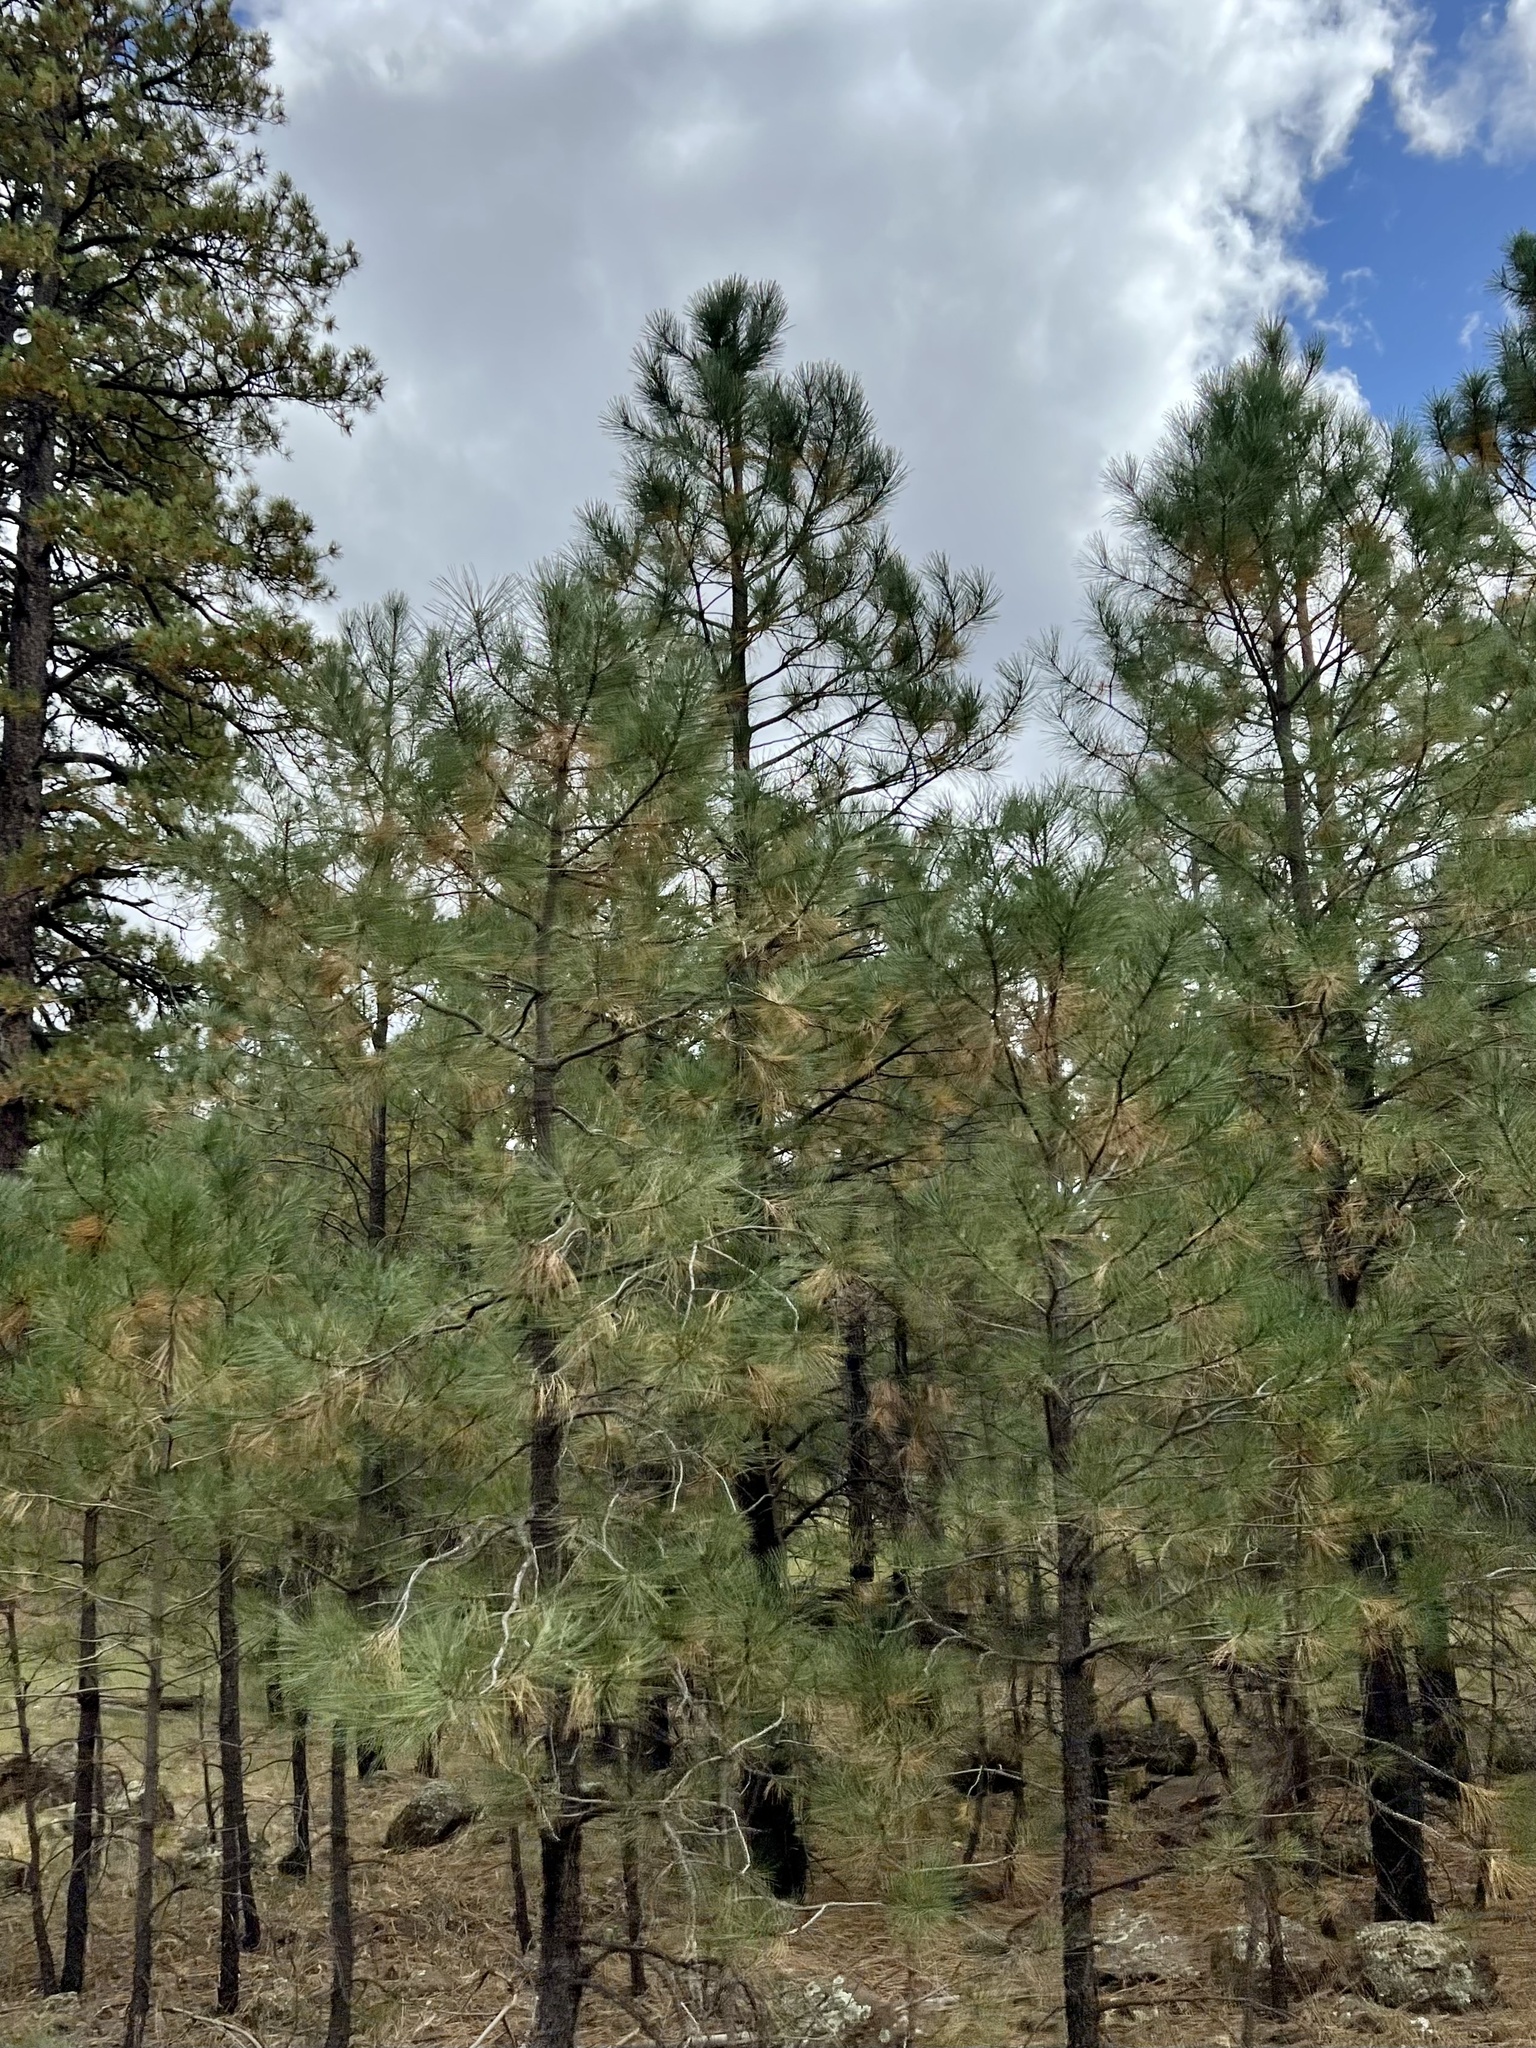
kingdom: Plantae
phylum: Tracheophyta
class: Pinopsida
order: Pinales
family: Pinaceae
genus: Pinus
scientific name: Pinus ponderosa
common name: Western yellow-pine
